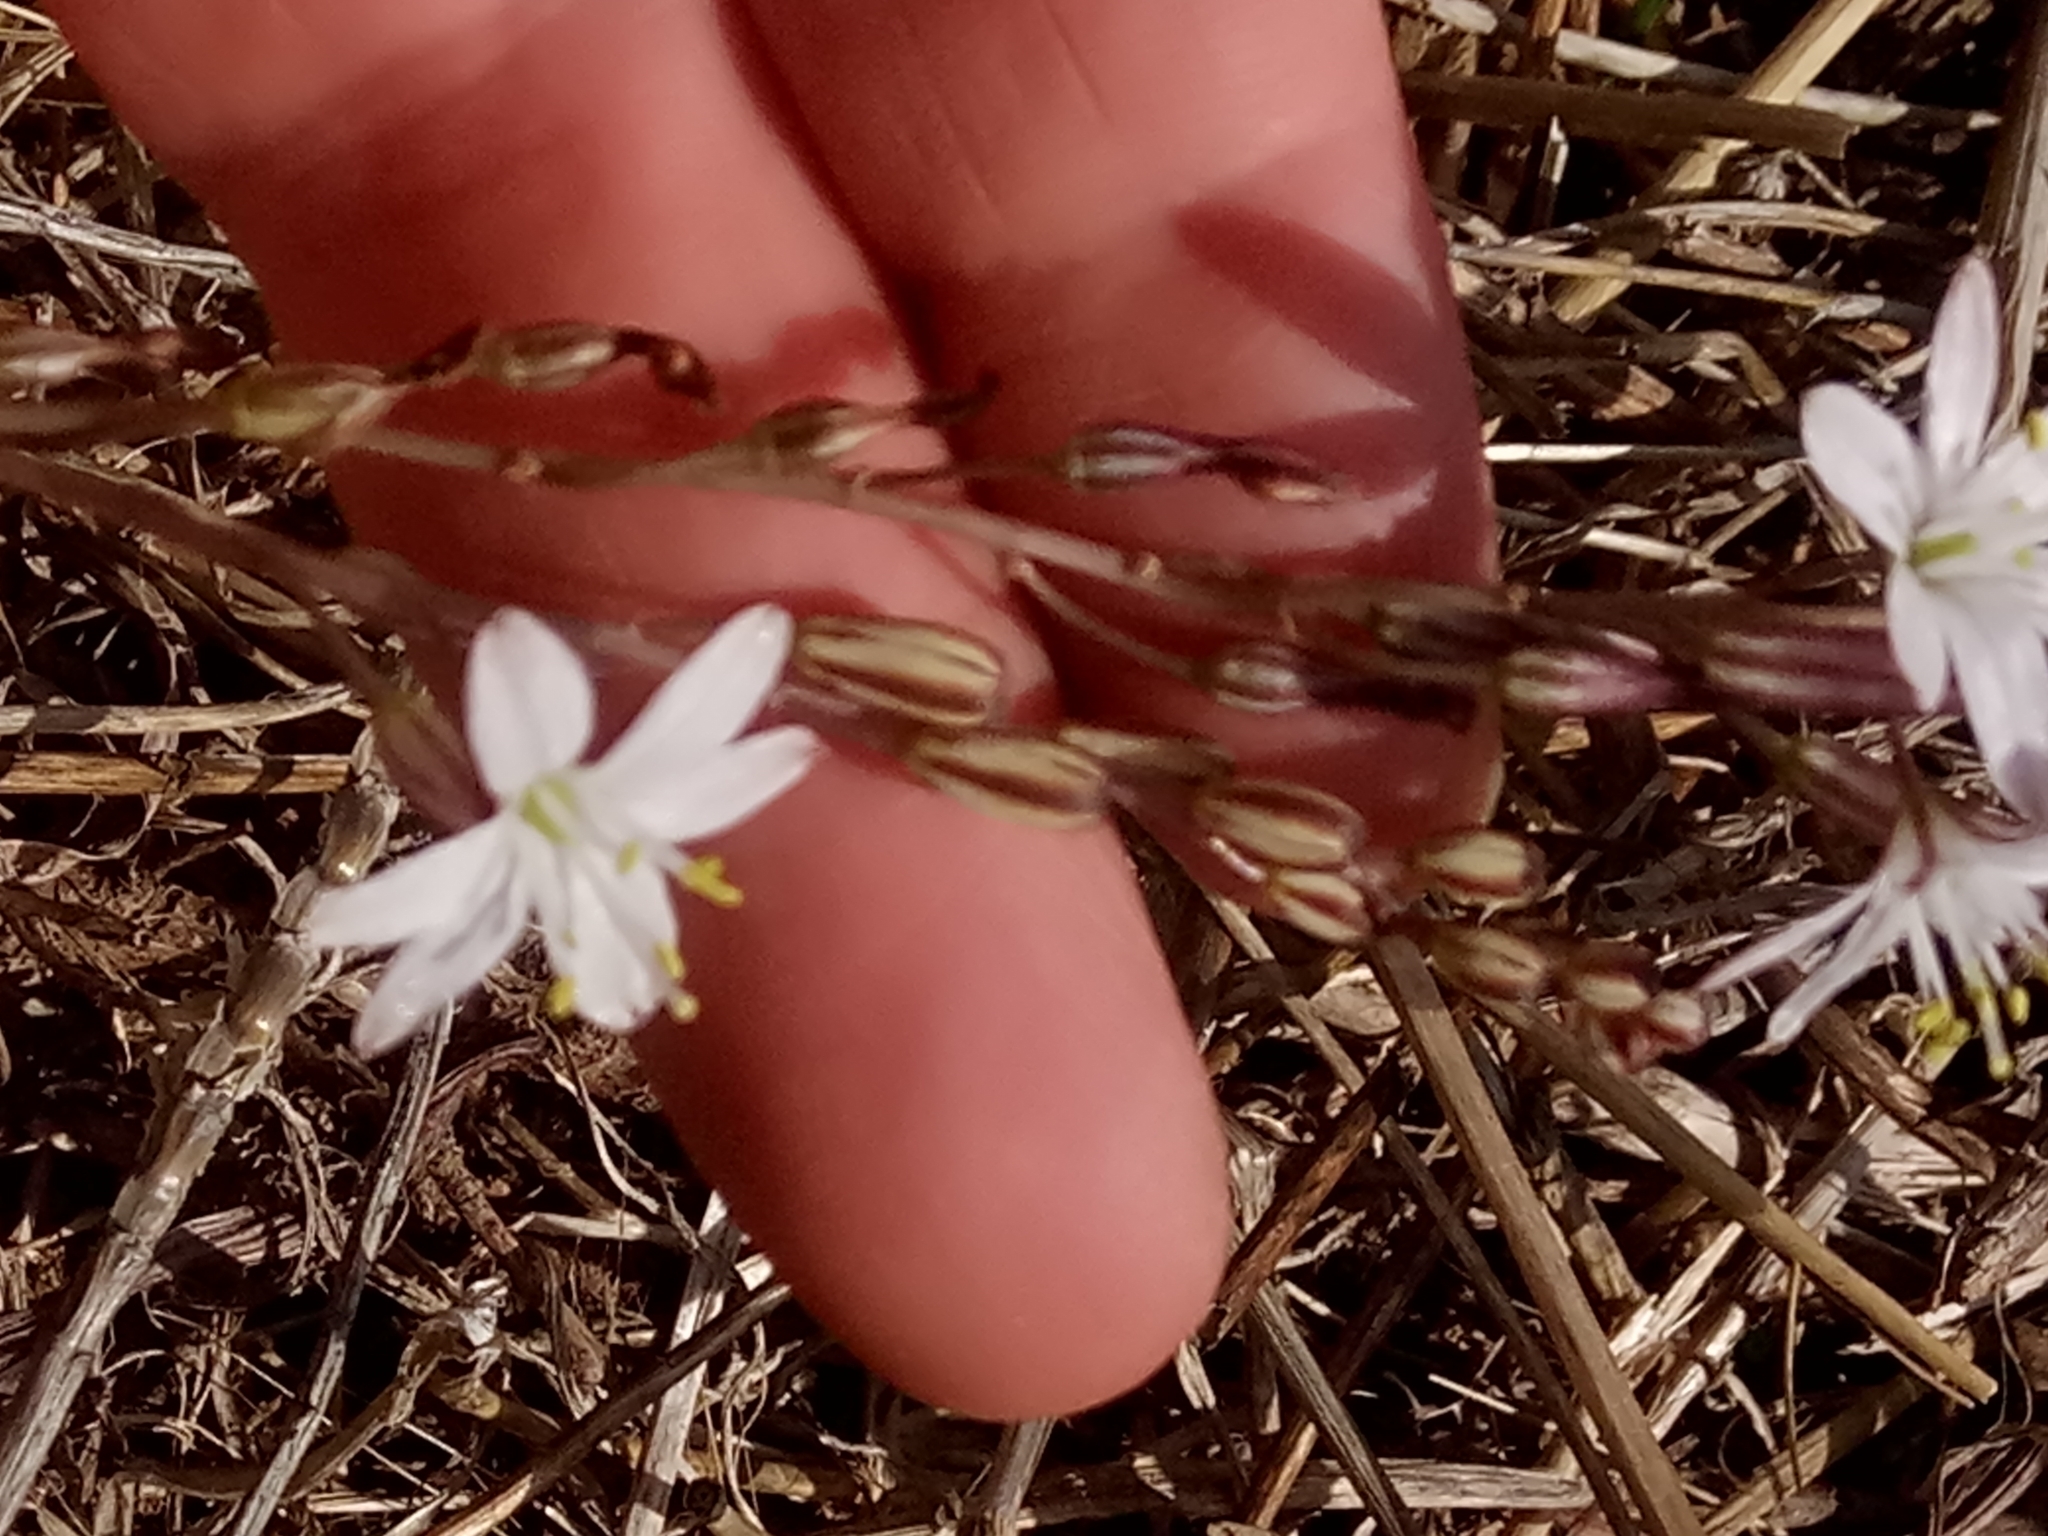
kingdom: Plantae
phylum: Tracheophyta
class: Liliopsida
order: Asparagales
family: Asparagaceae
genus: Drimia
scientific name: Drimia fugax
